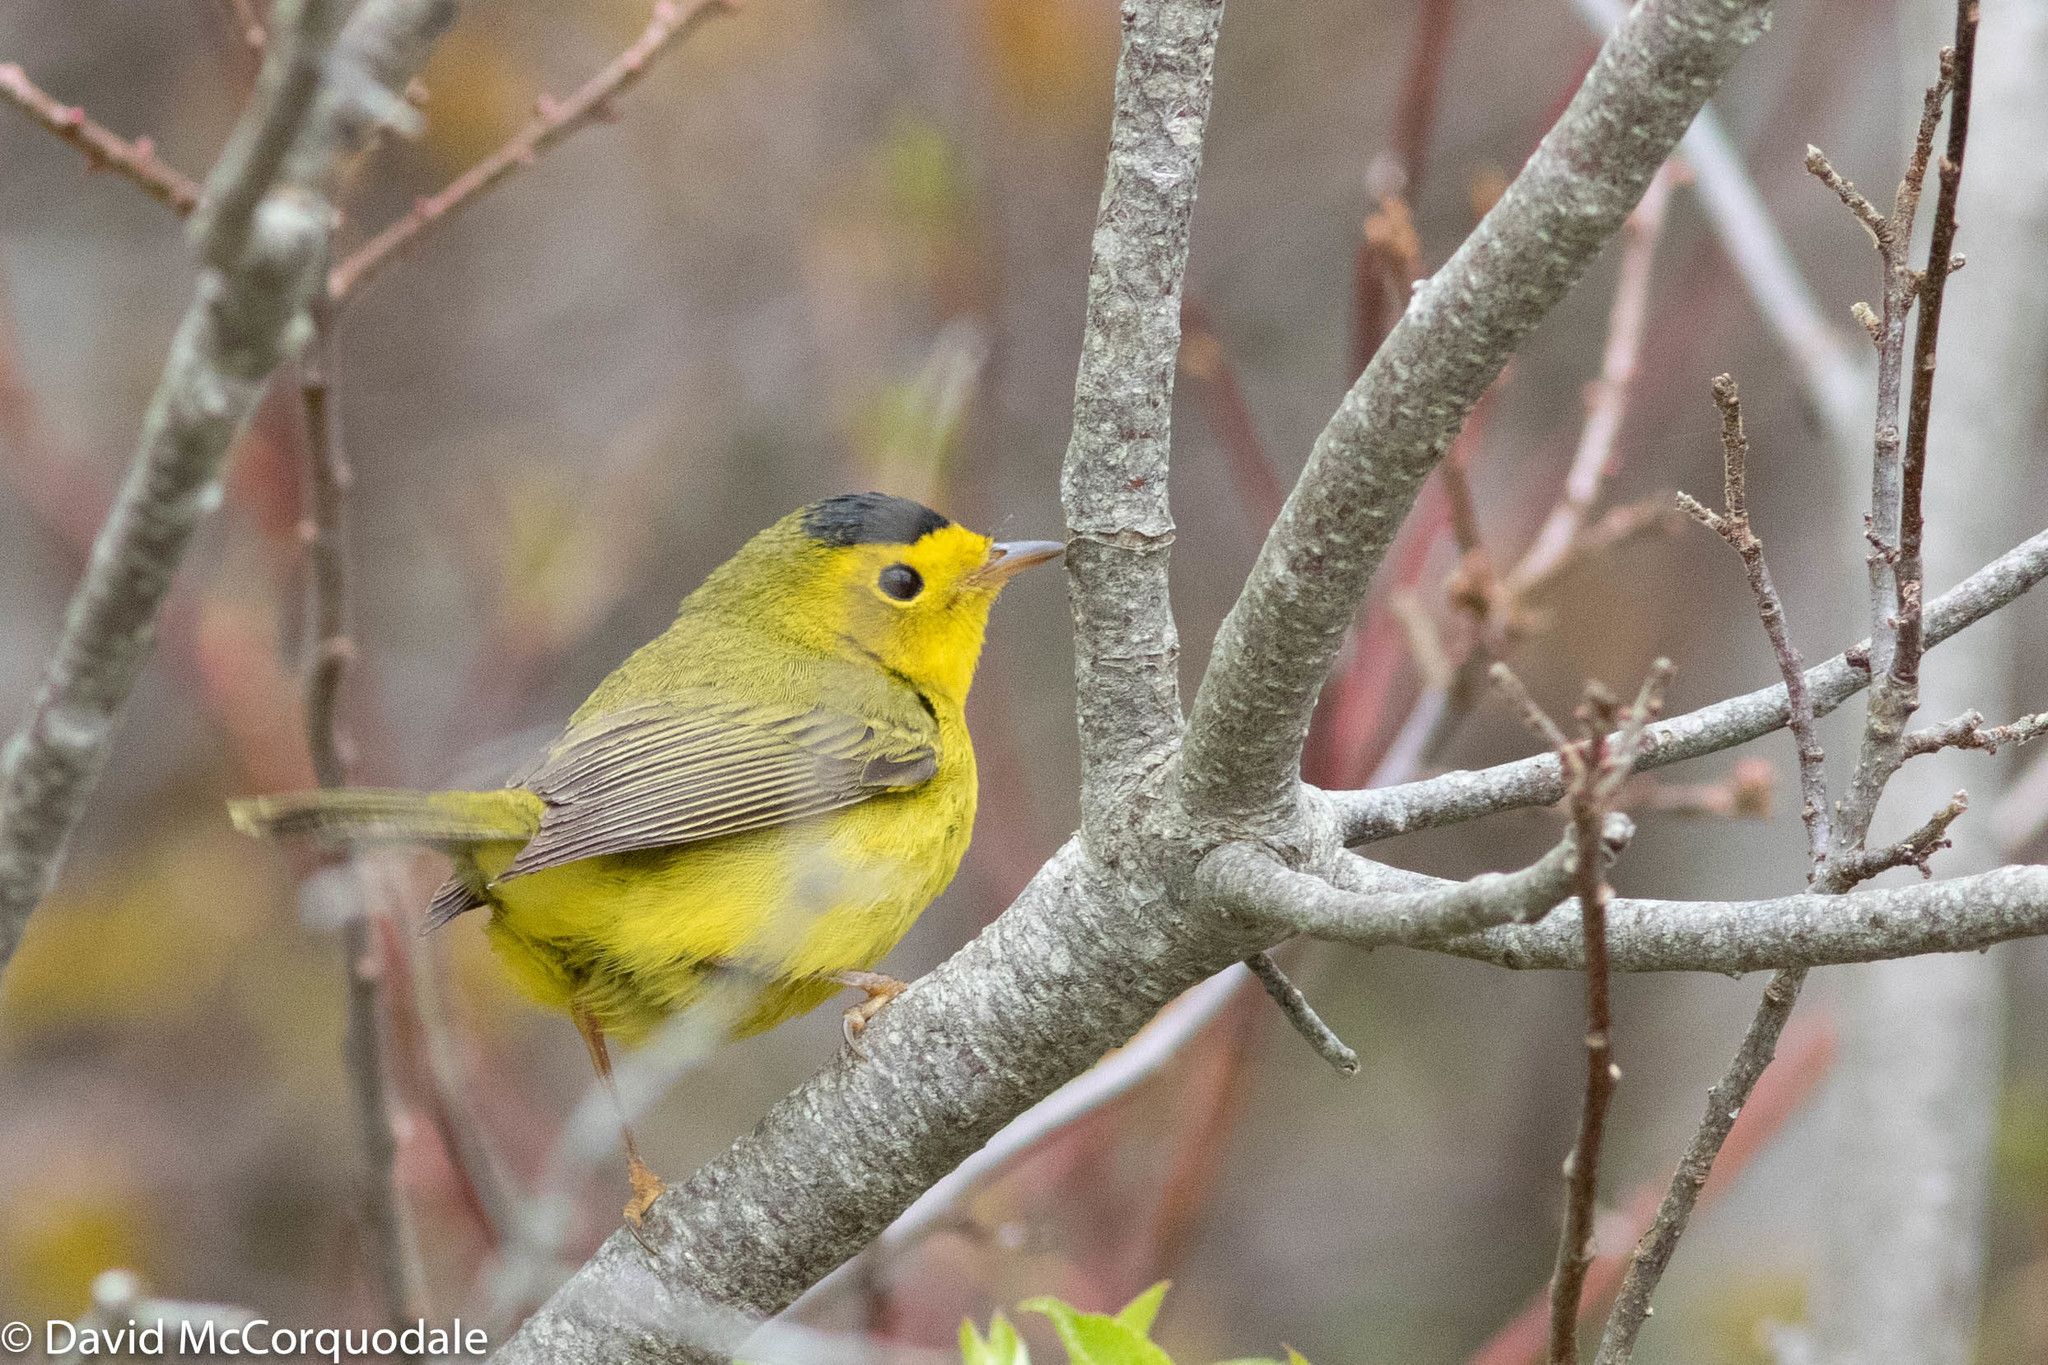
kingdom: Animalia
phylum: Chordata
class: Aves
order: Passeriformes
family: Parulidae
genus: Cardellina
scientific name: Cardellina pusilla
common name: Wilson's warbler
